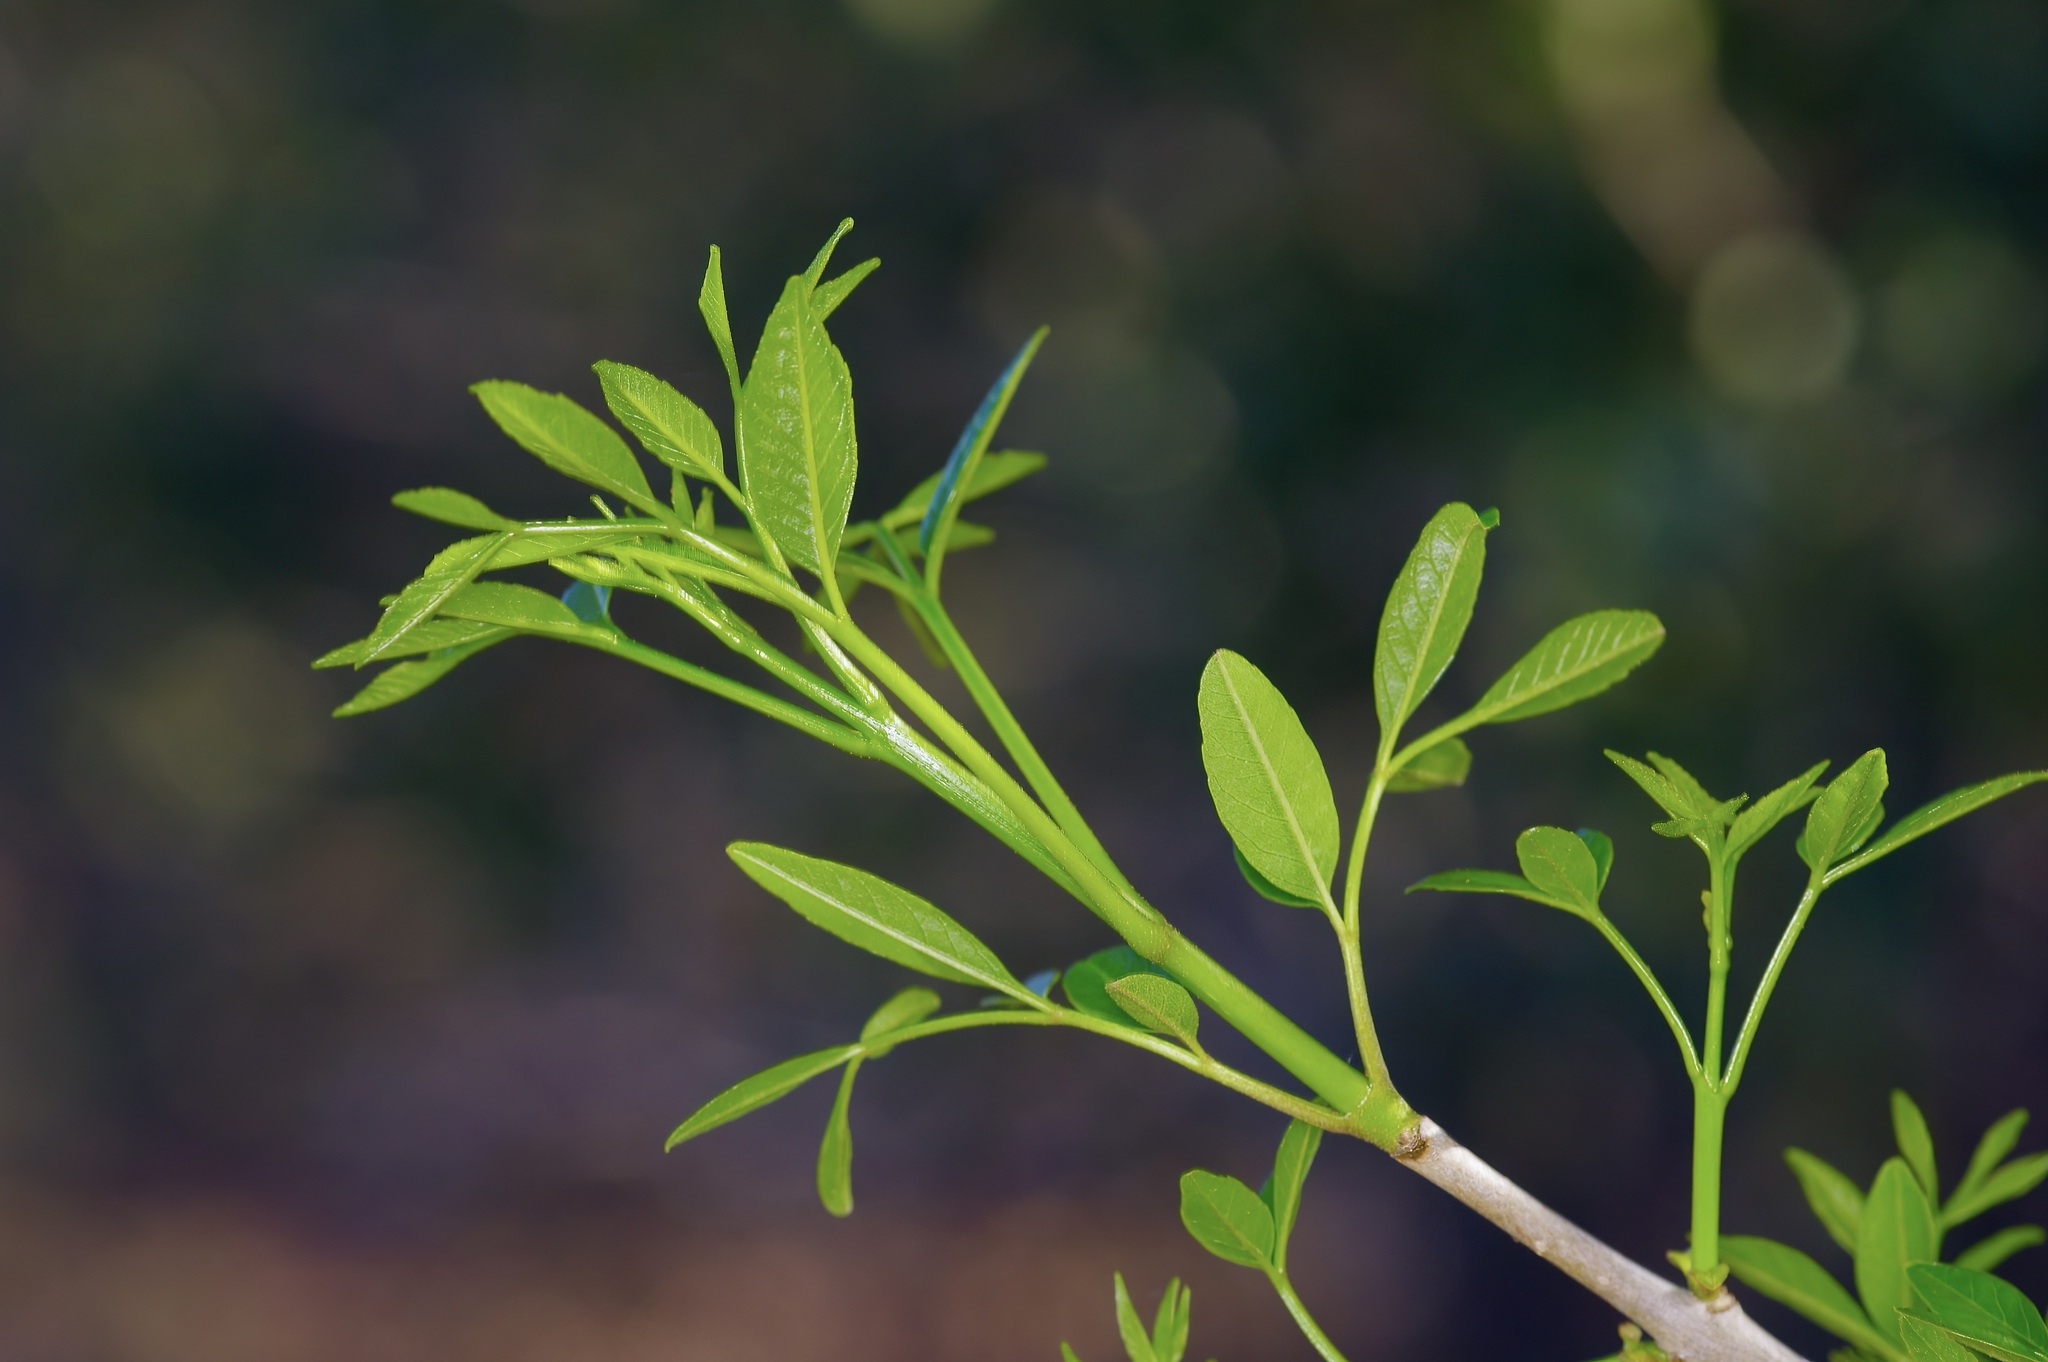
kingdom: Plantae
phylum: Tracheophyta
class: Magnoliopsida
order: Lamiales
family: Oleaceae
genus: Fraxinus
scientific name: Fraxinus berlandieriana
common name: Berlandier ash
